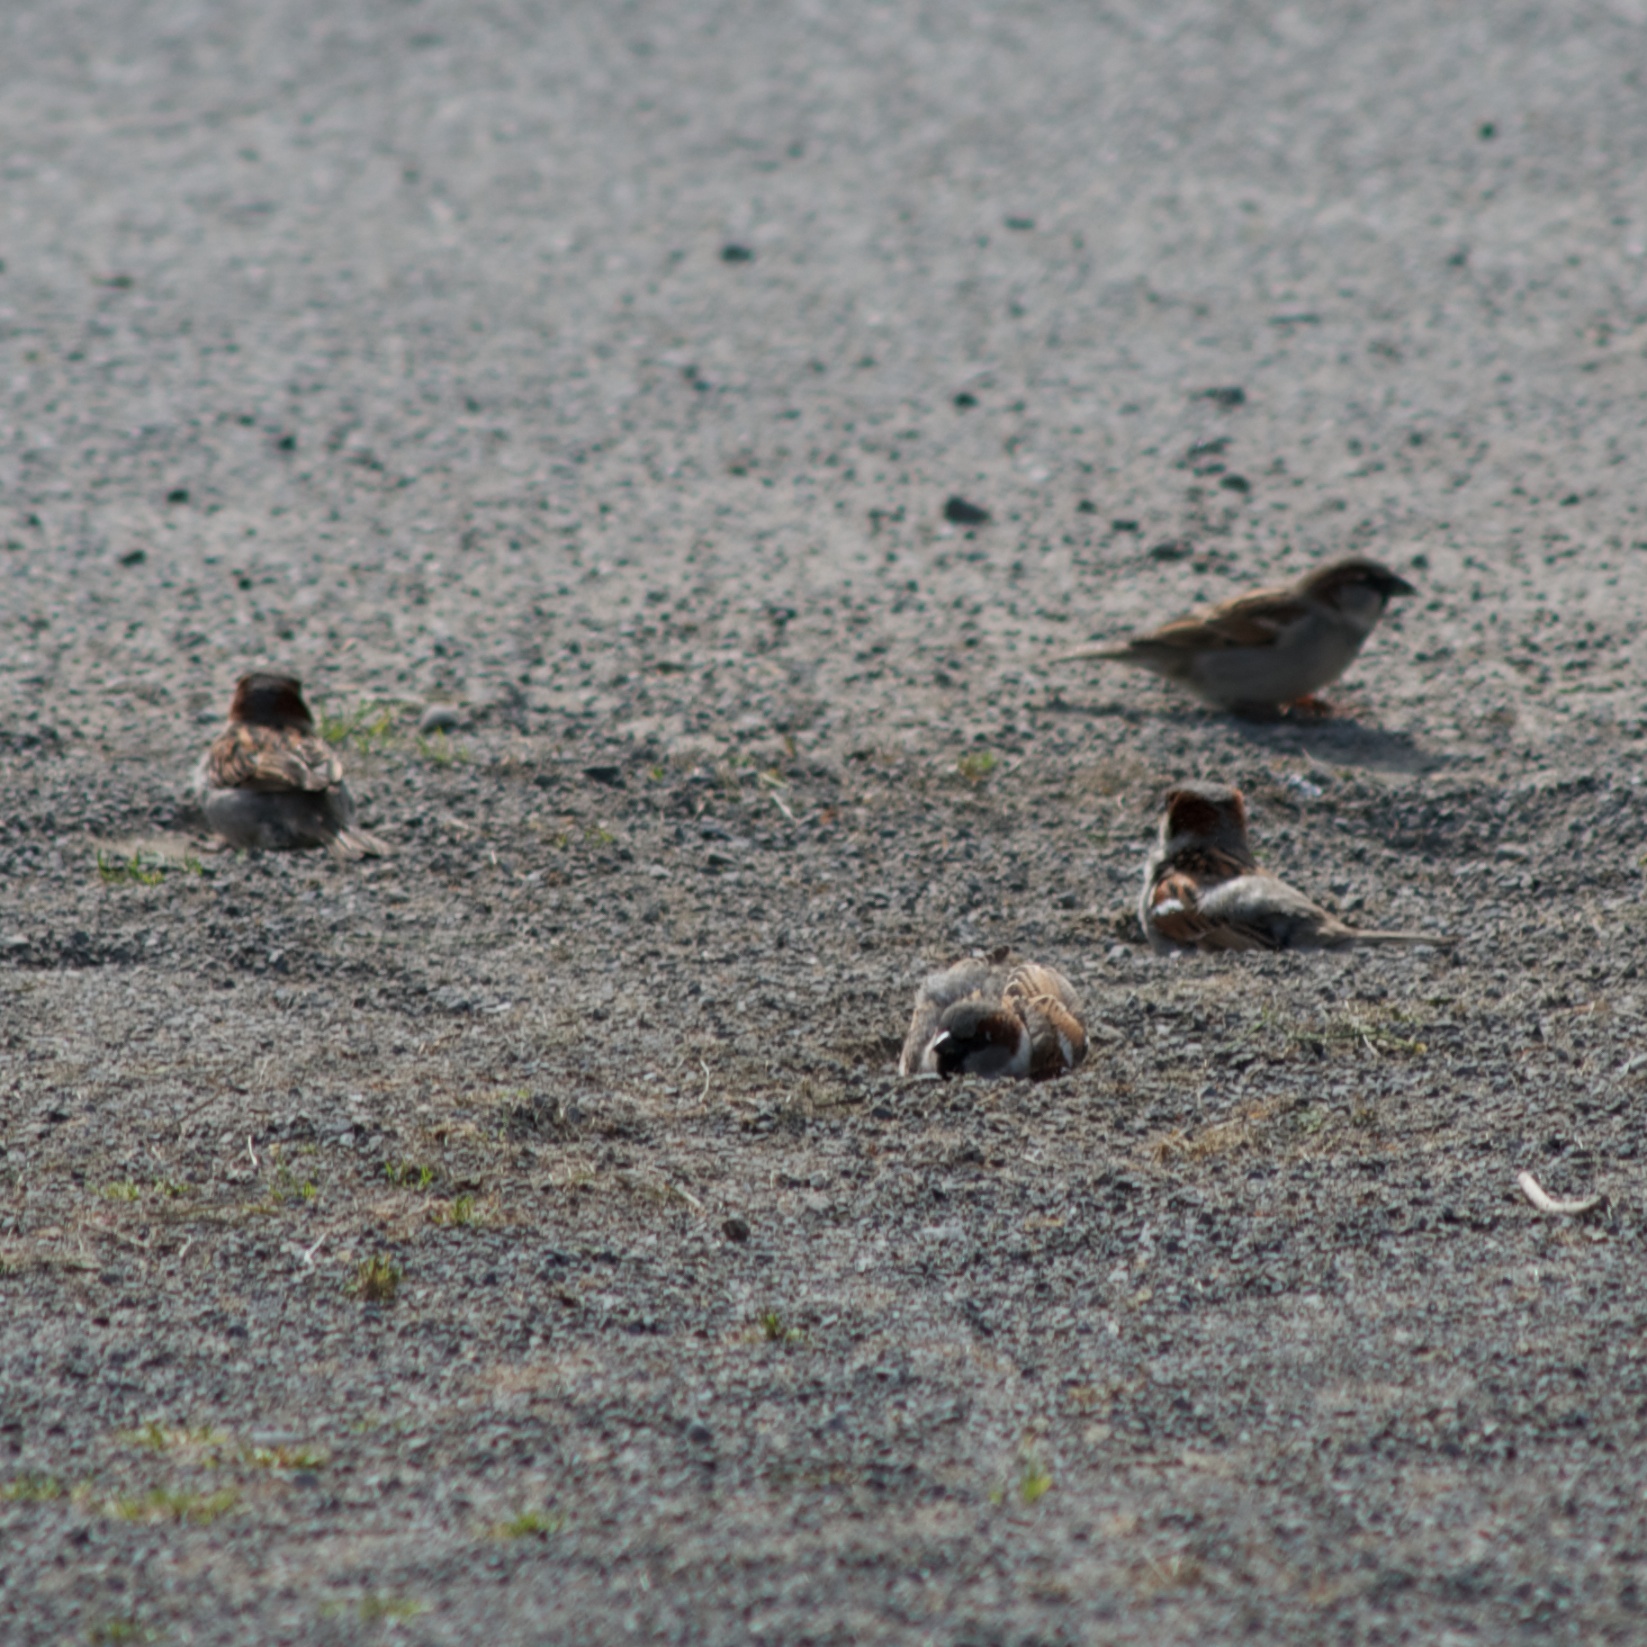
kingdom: Animalia
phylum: Chordata
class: Aves
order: Passeriformes
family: Passeridae
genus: Passer
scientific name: Passer domesticus
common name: House sparrow
